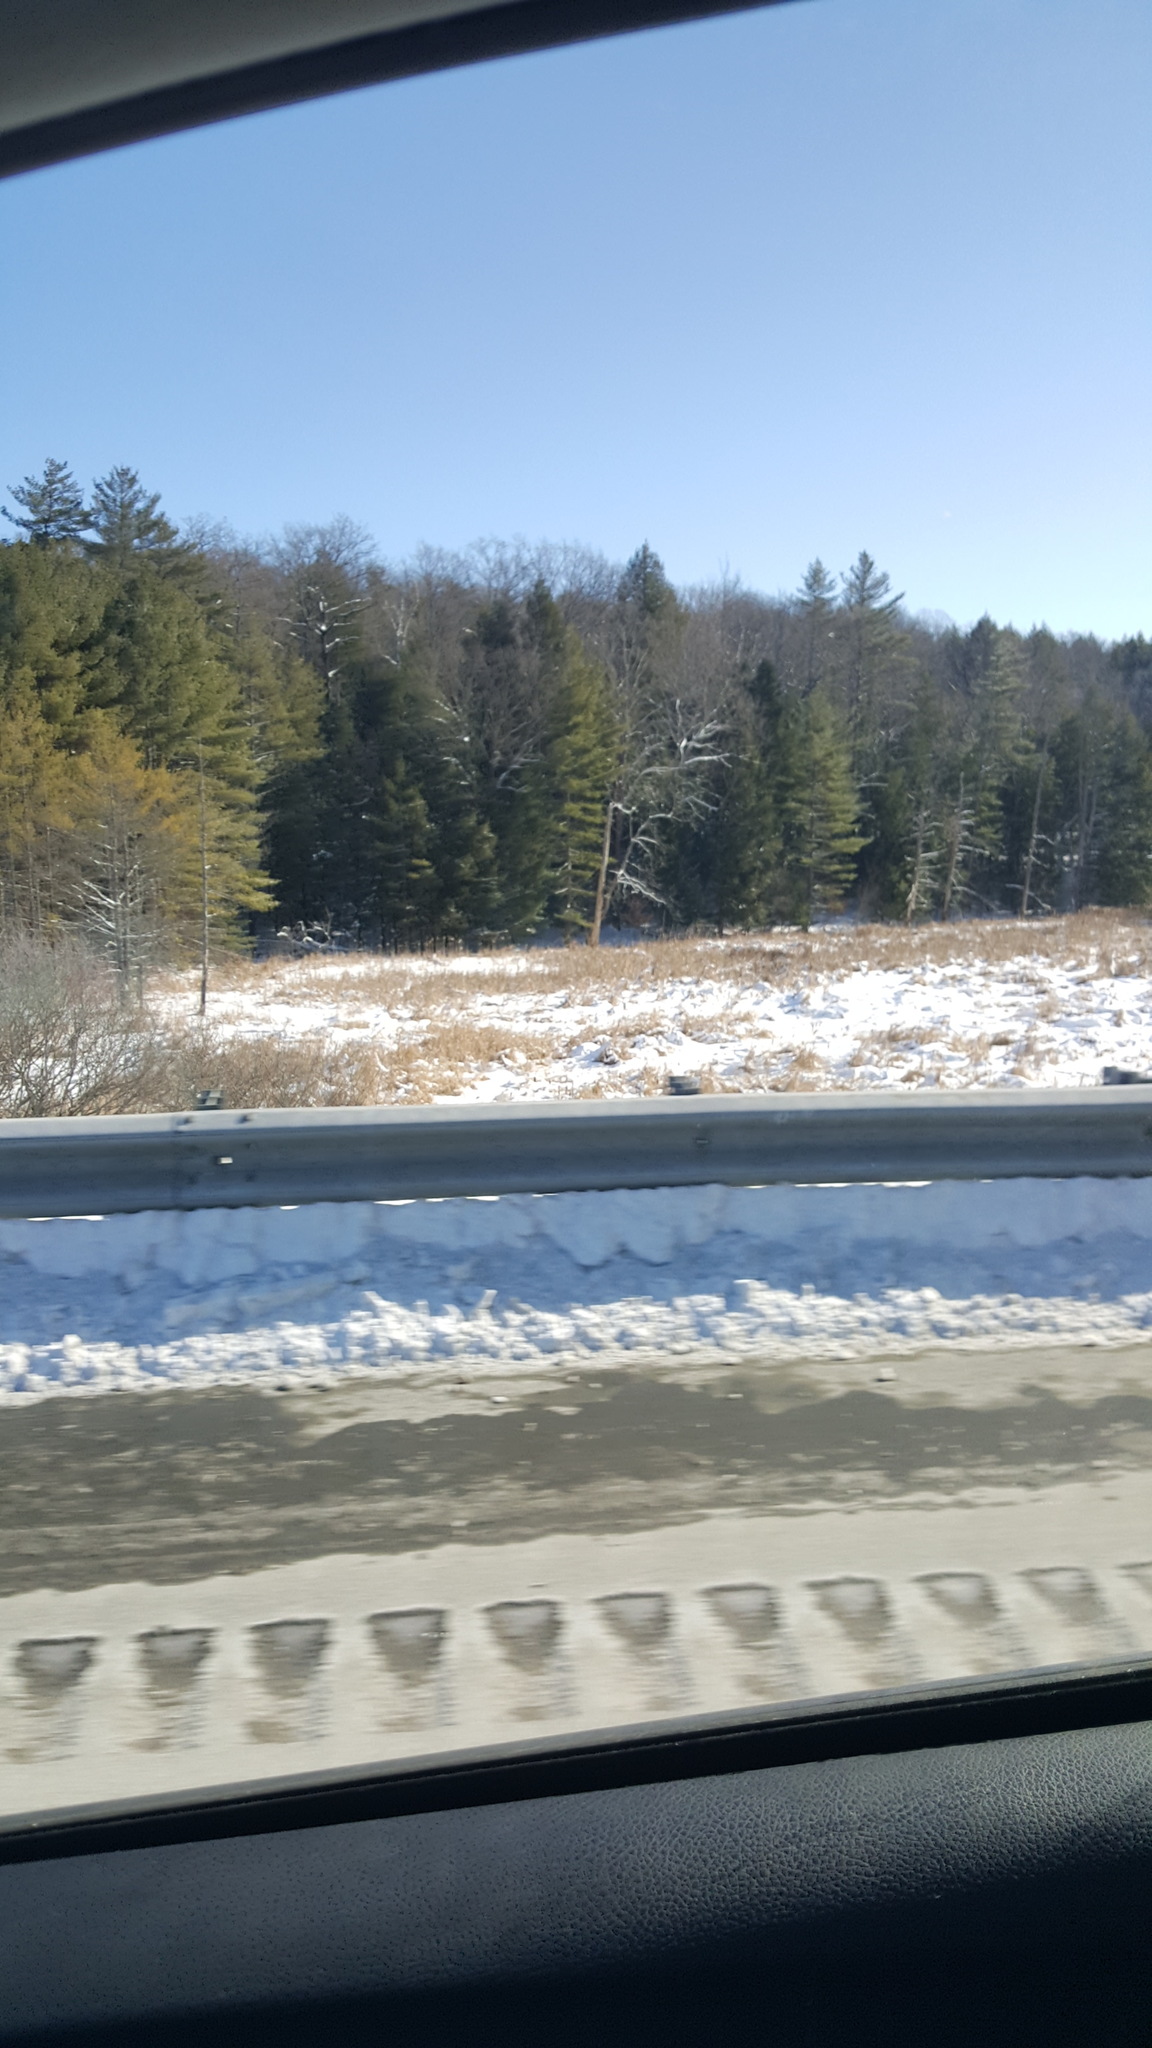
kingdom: Plantae
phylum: Tracheophyta
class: Liliopsida
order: Poales
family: Typhaceae
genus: Typha
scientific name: Typha
